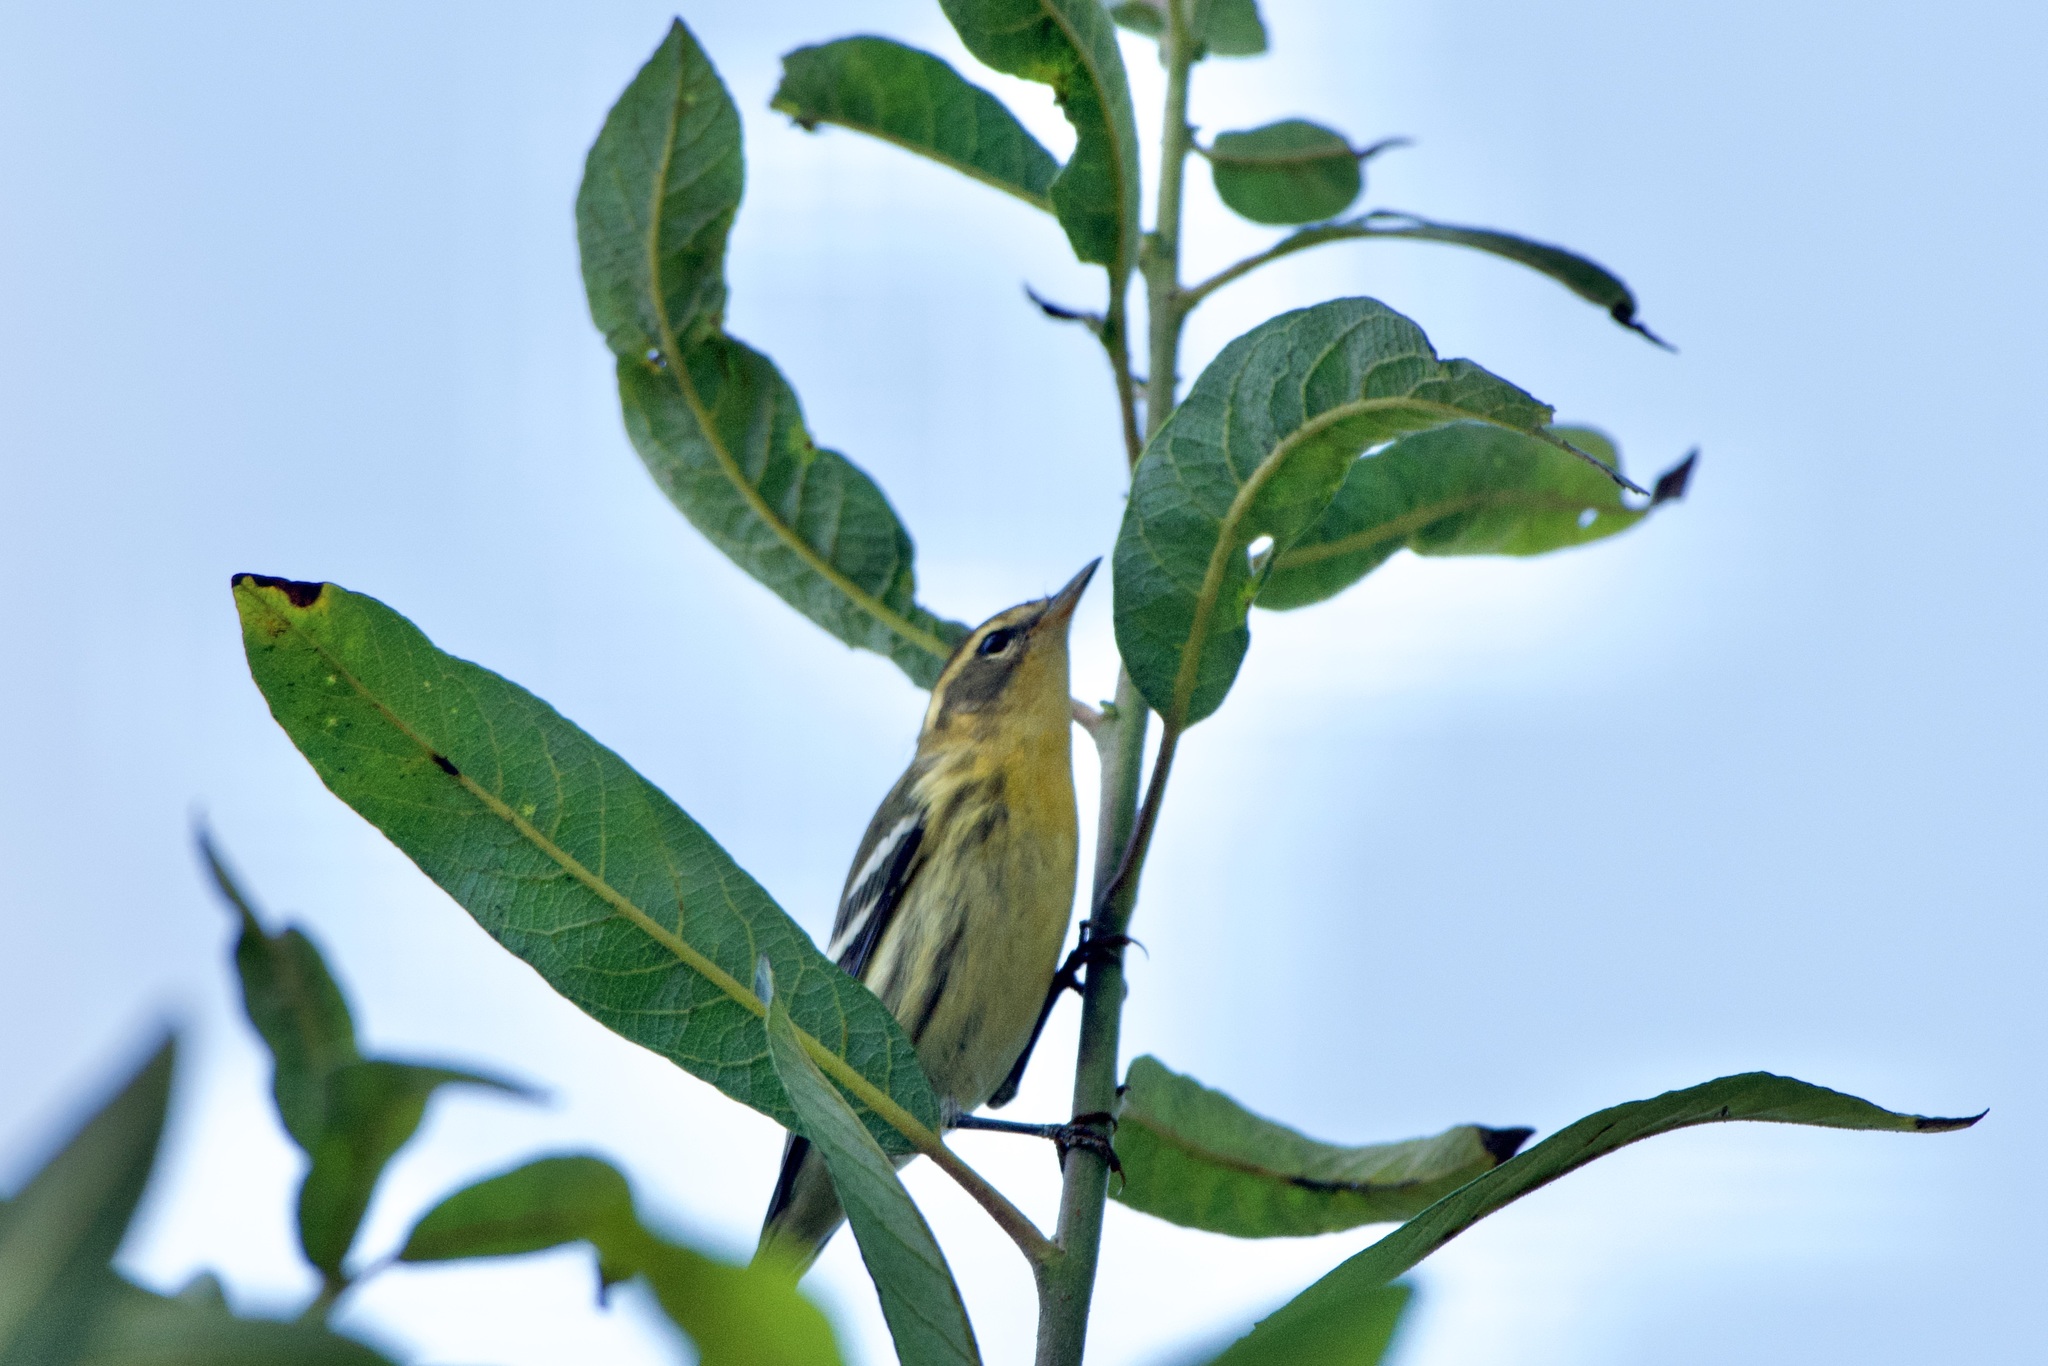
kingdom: Animalia
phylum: Chordata
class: Aves
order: Passeriformes
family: Parulidae
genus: Setophaga
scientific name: Setophaga fusca
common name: Blackburnian warbler
